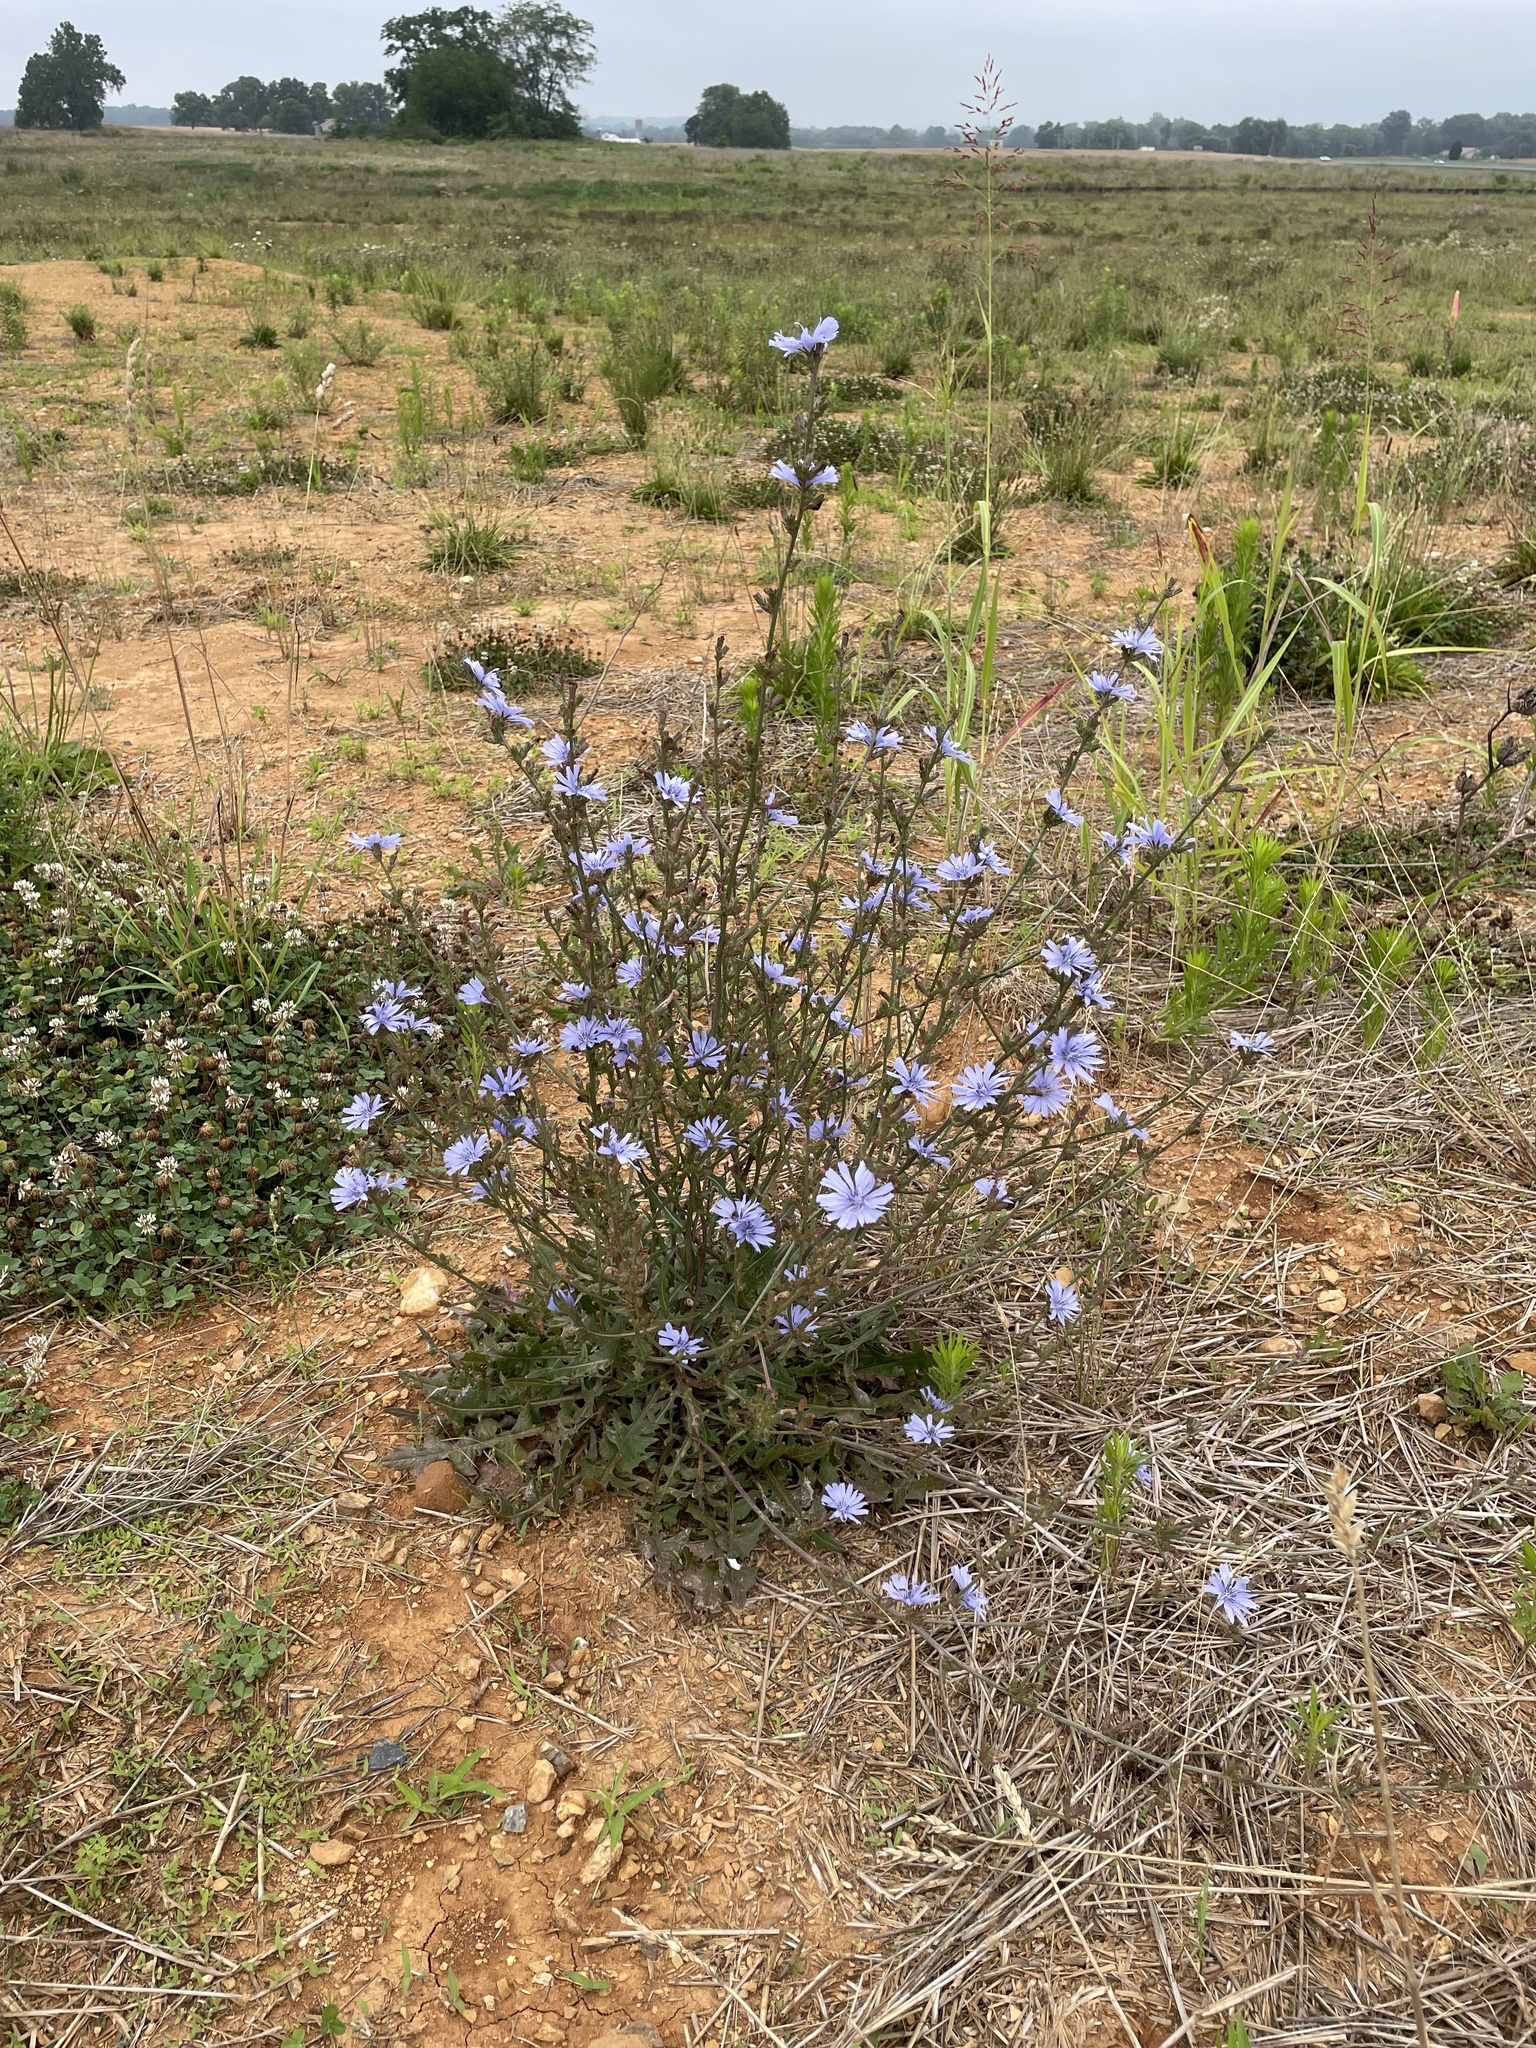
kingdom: Plantae
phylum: Tracheophyta
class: Magnoliopsida
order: Asterales
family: Asteraceae
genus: Cichorium
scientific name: Cichorium intybus
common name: Chicory
